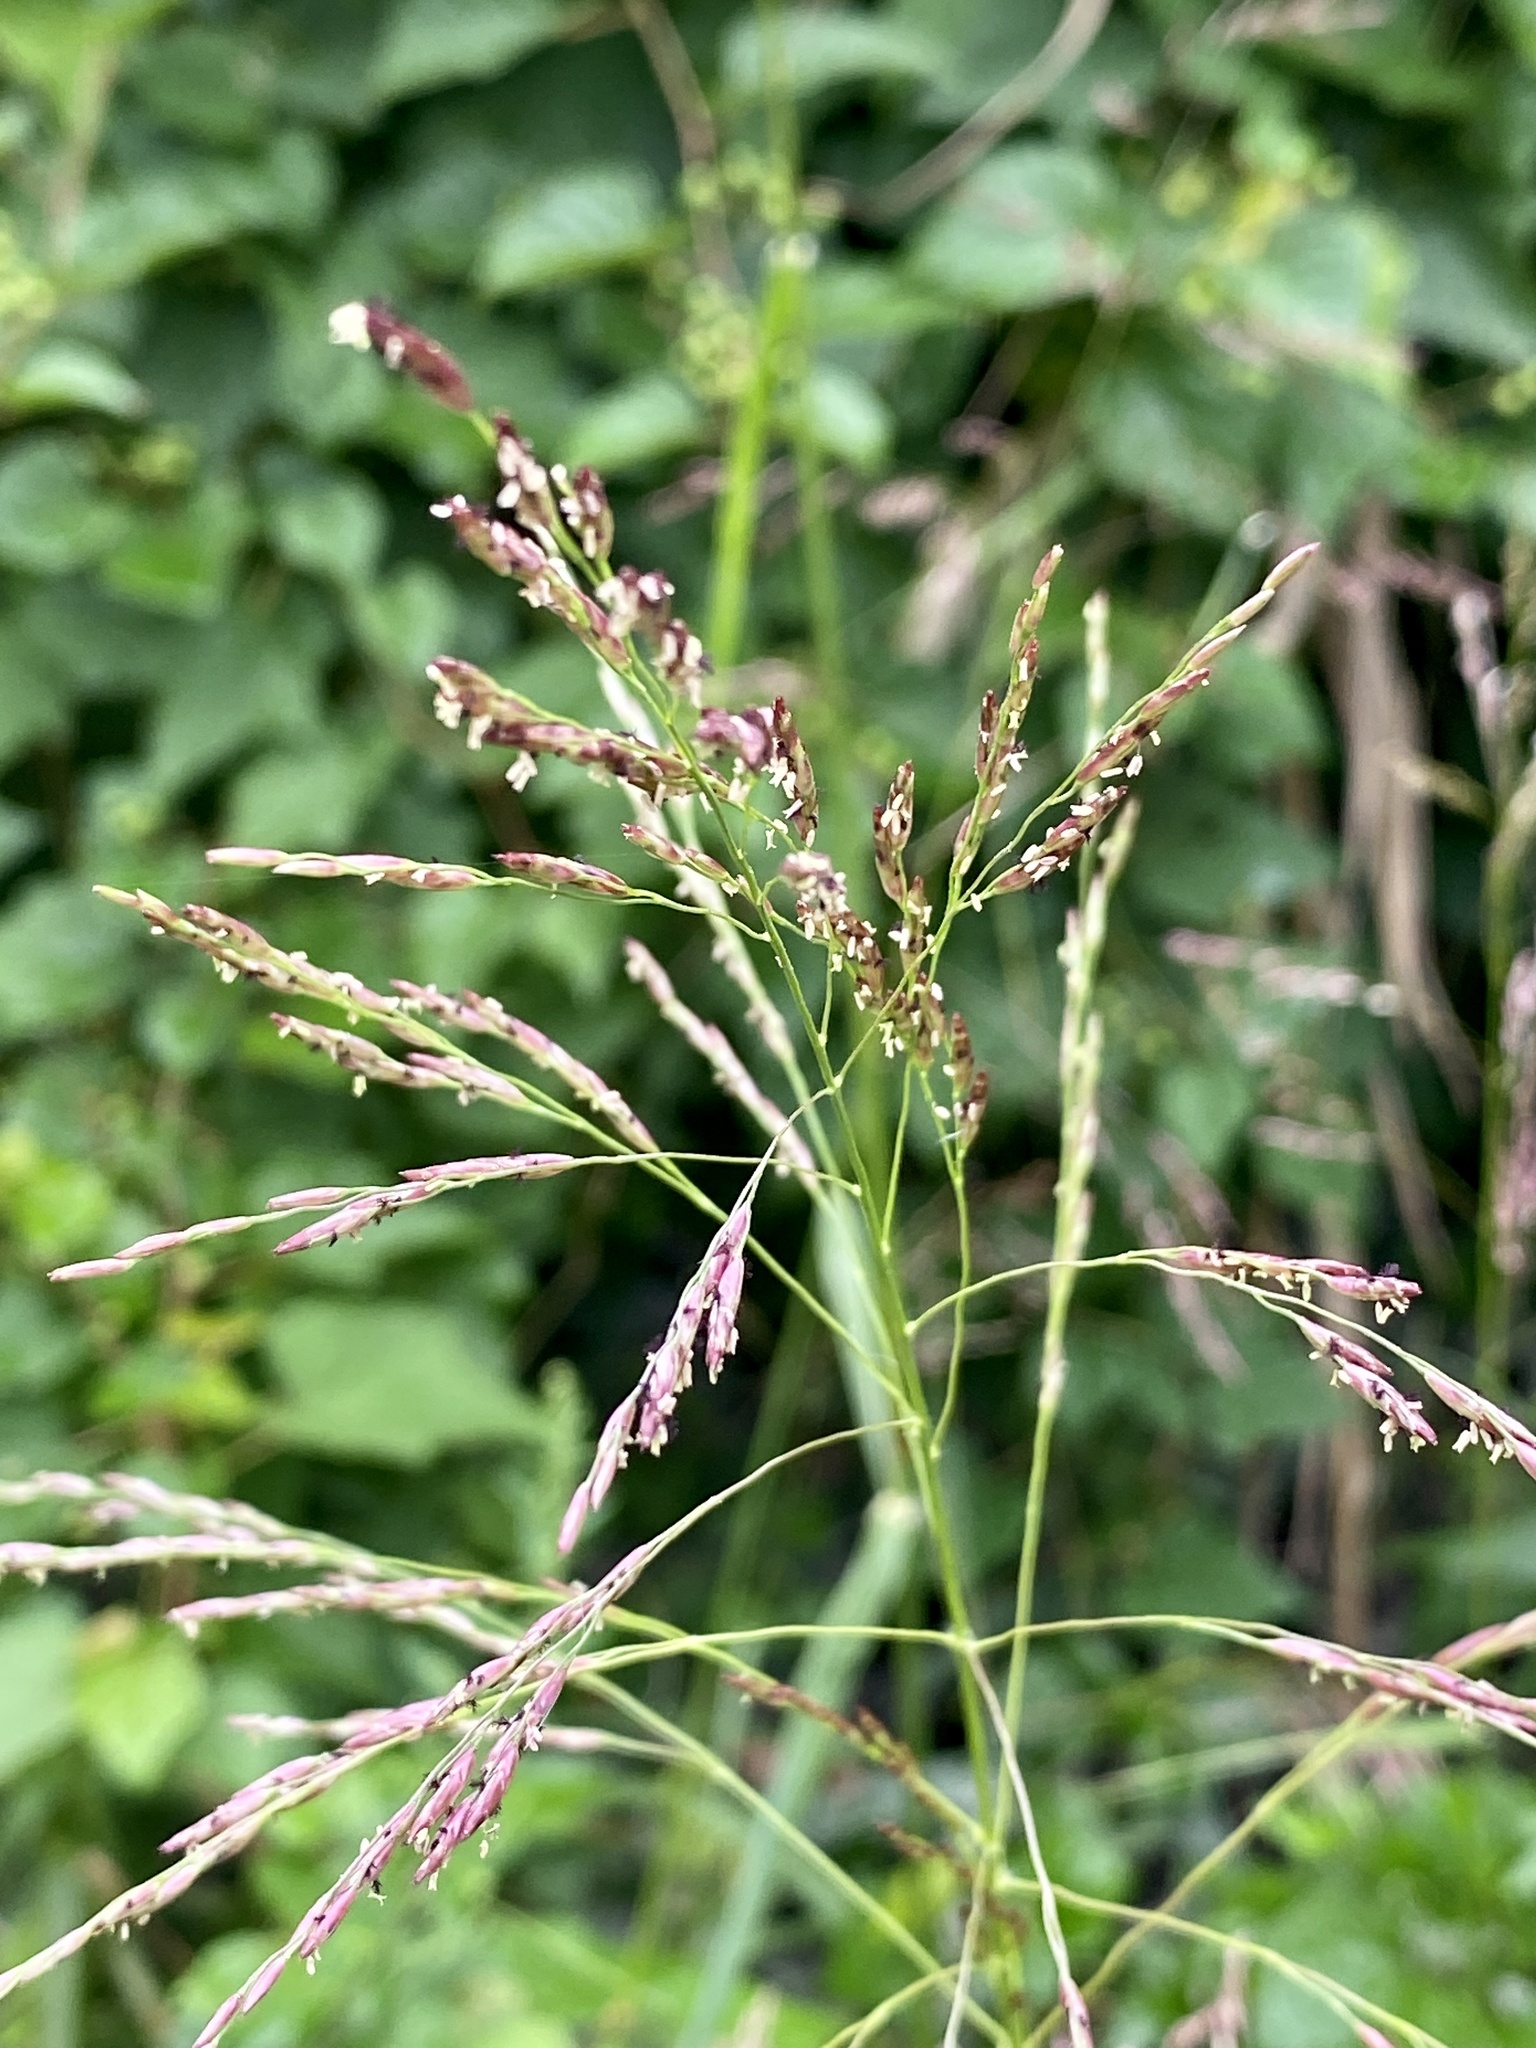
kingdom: Plantae
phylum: Tracheophyta
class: Liliopsida
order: Poales
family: Poaceae
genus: Tridens
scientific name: Tridens flavus
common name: Purpletop
